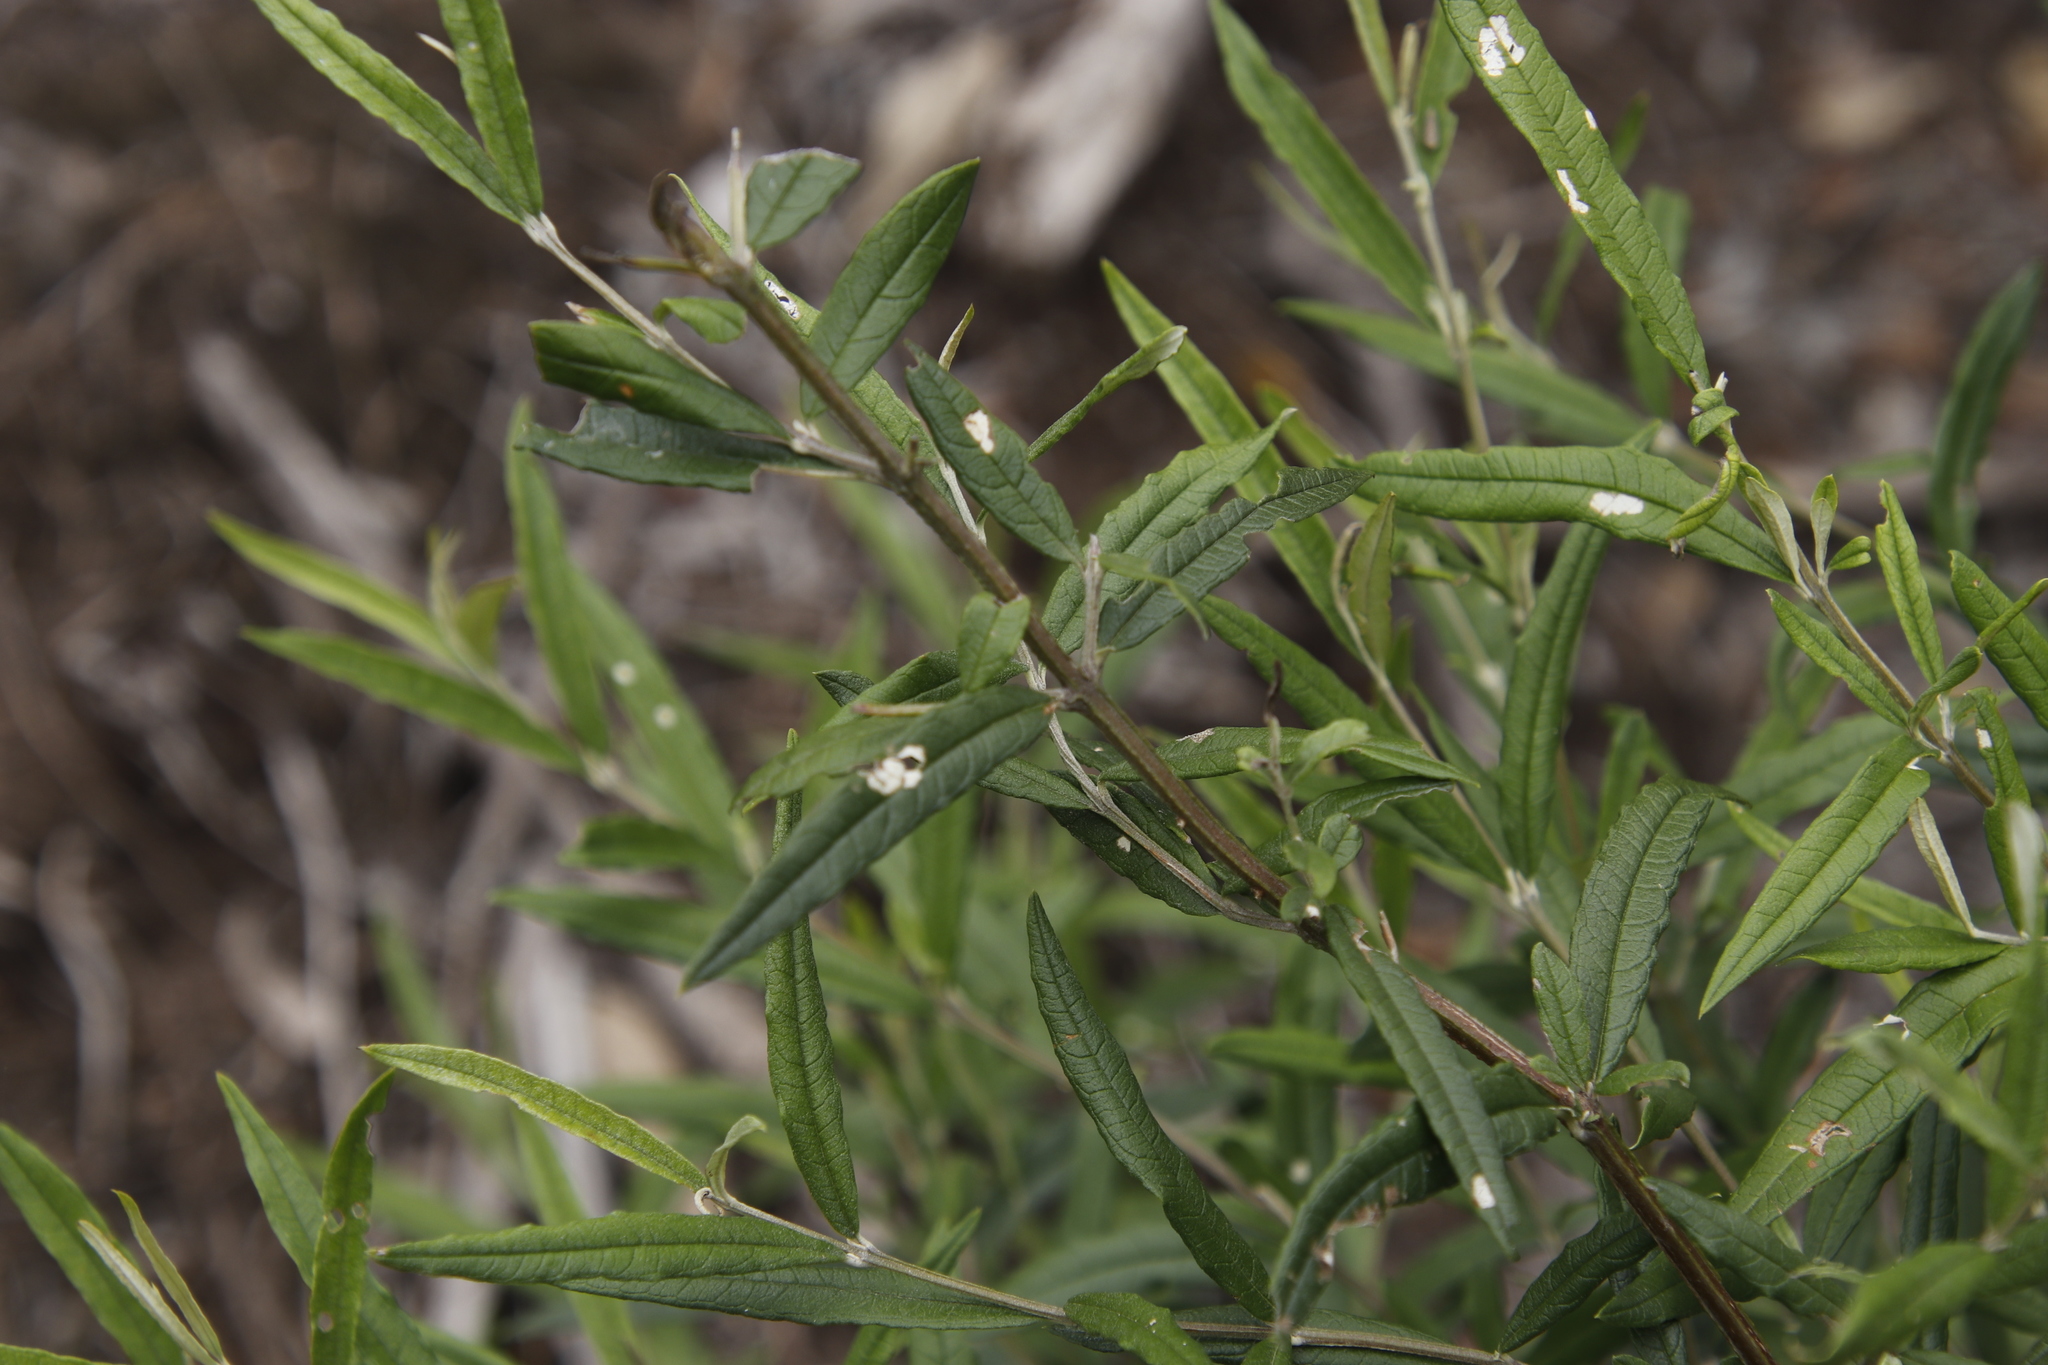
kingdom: Plantae
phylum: Tracheophyta
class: Magnoliopsida
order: Lamiales
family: Scrophulariaceae
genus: Buddleja
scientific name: Buddleja saligna
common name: False olive
